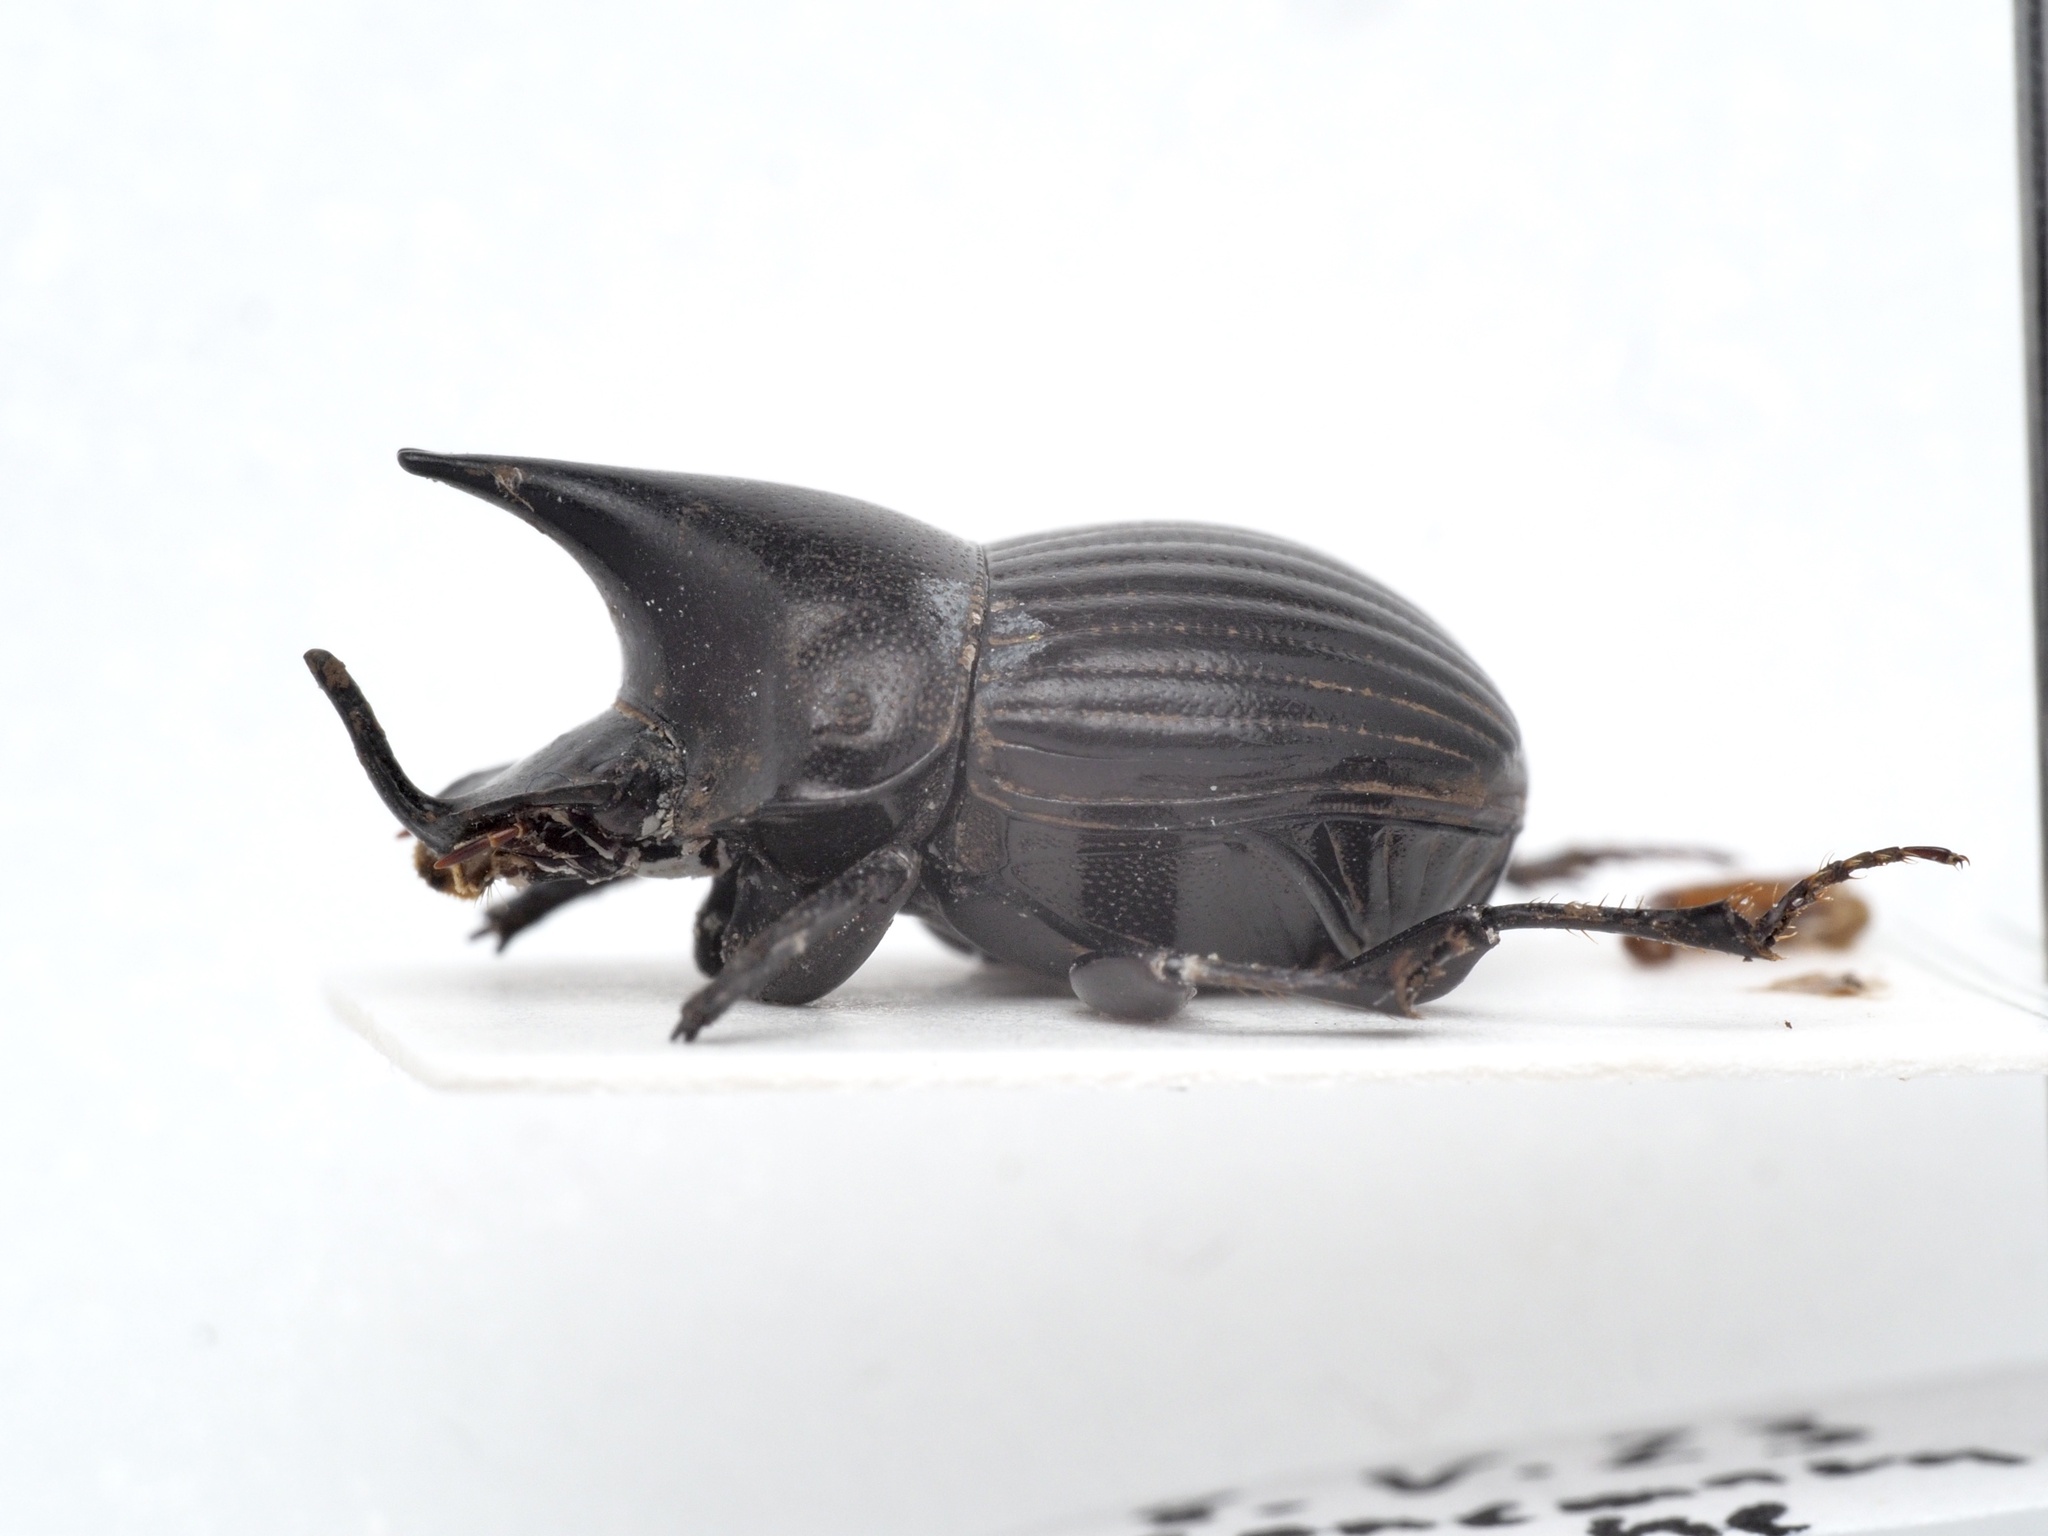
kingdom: Animalia
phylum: Arthropoda
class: Insecta
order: Coleoptera
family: Scarabaeidae
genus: Xinidium
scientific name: Xinidium davisi
